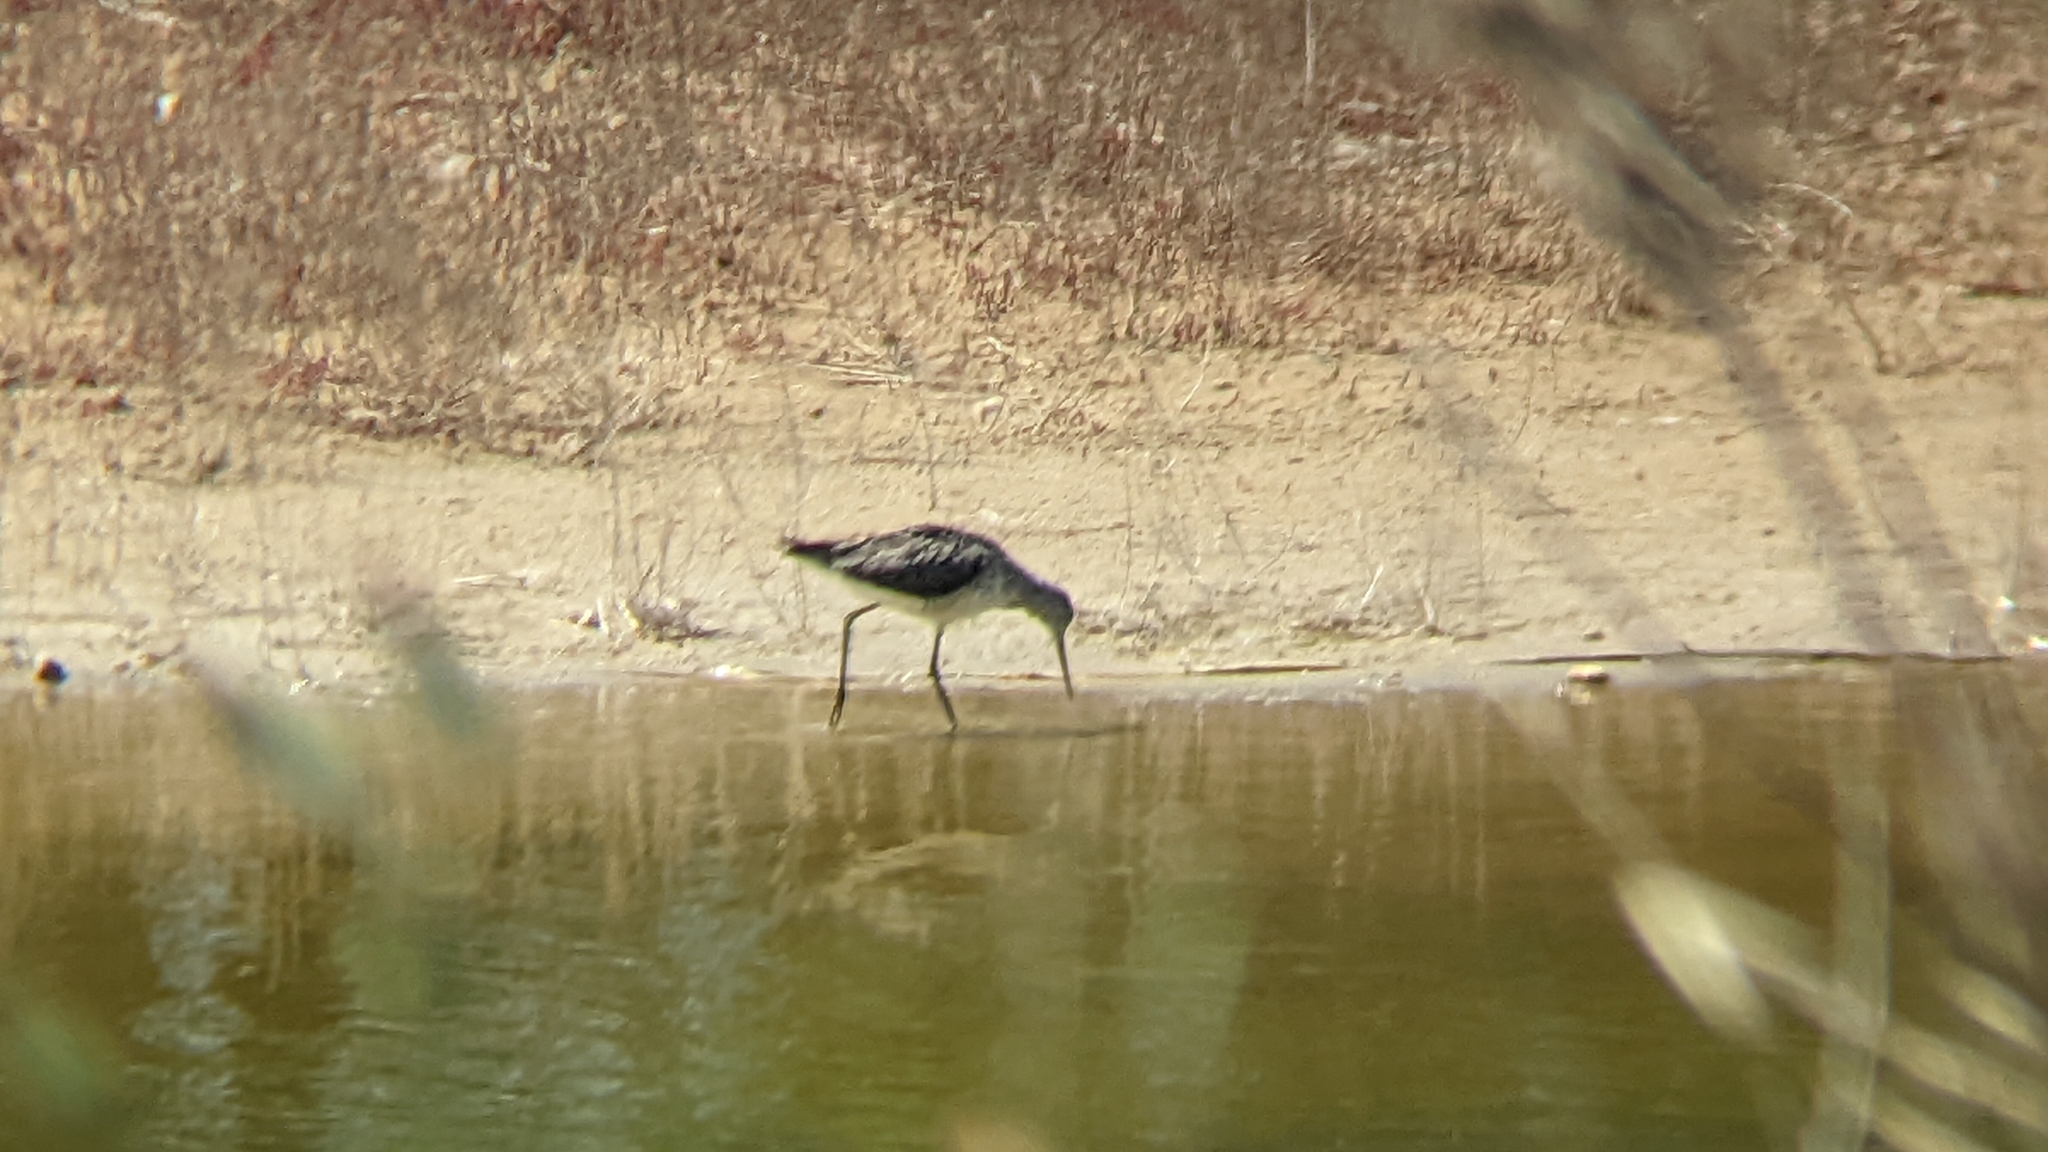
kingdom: Animalia
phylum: Chordata
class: Aves
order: Charadriiformes
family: Scolopacidae
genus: Tringa
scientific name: Tringa nebularia
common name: Common greenshank
